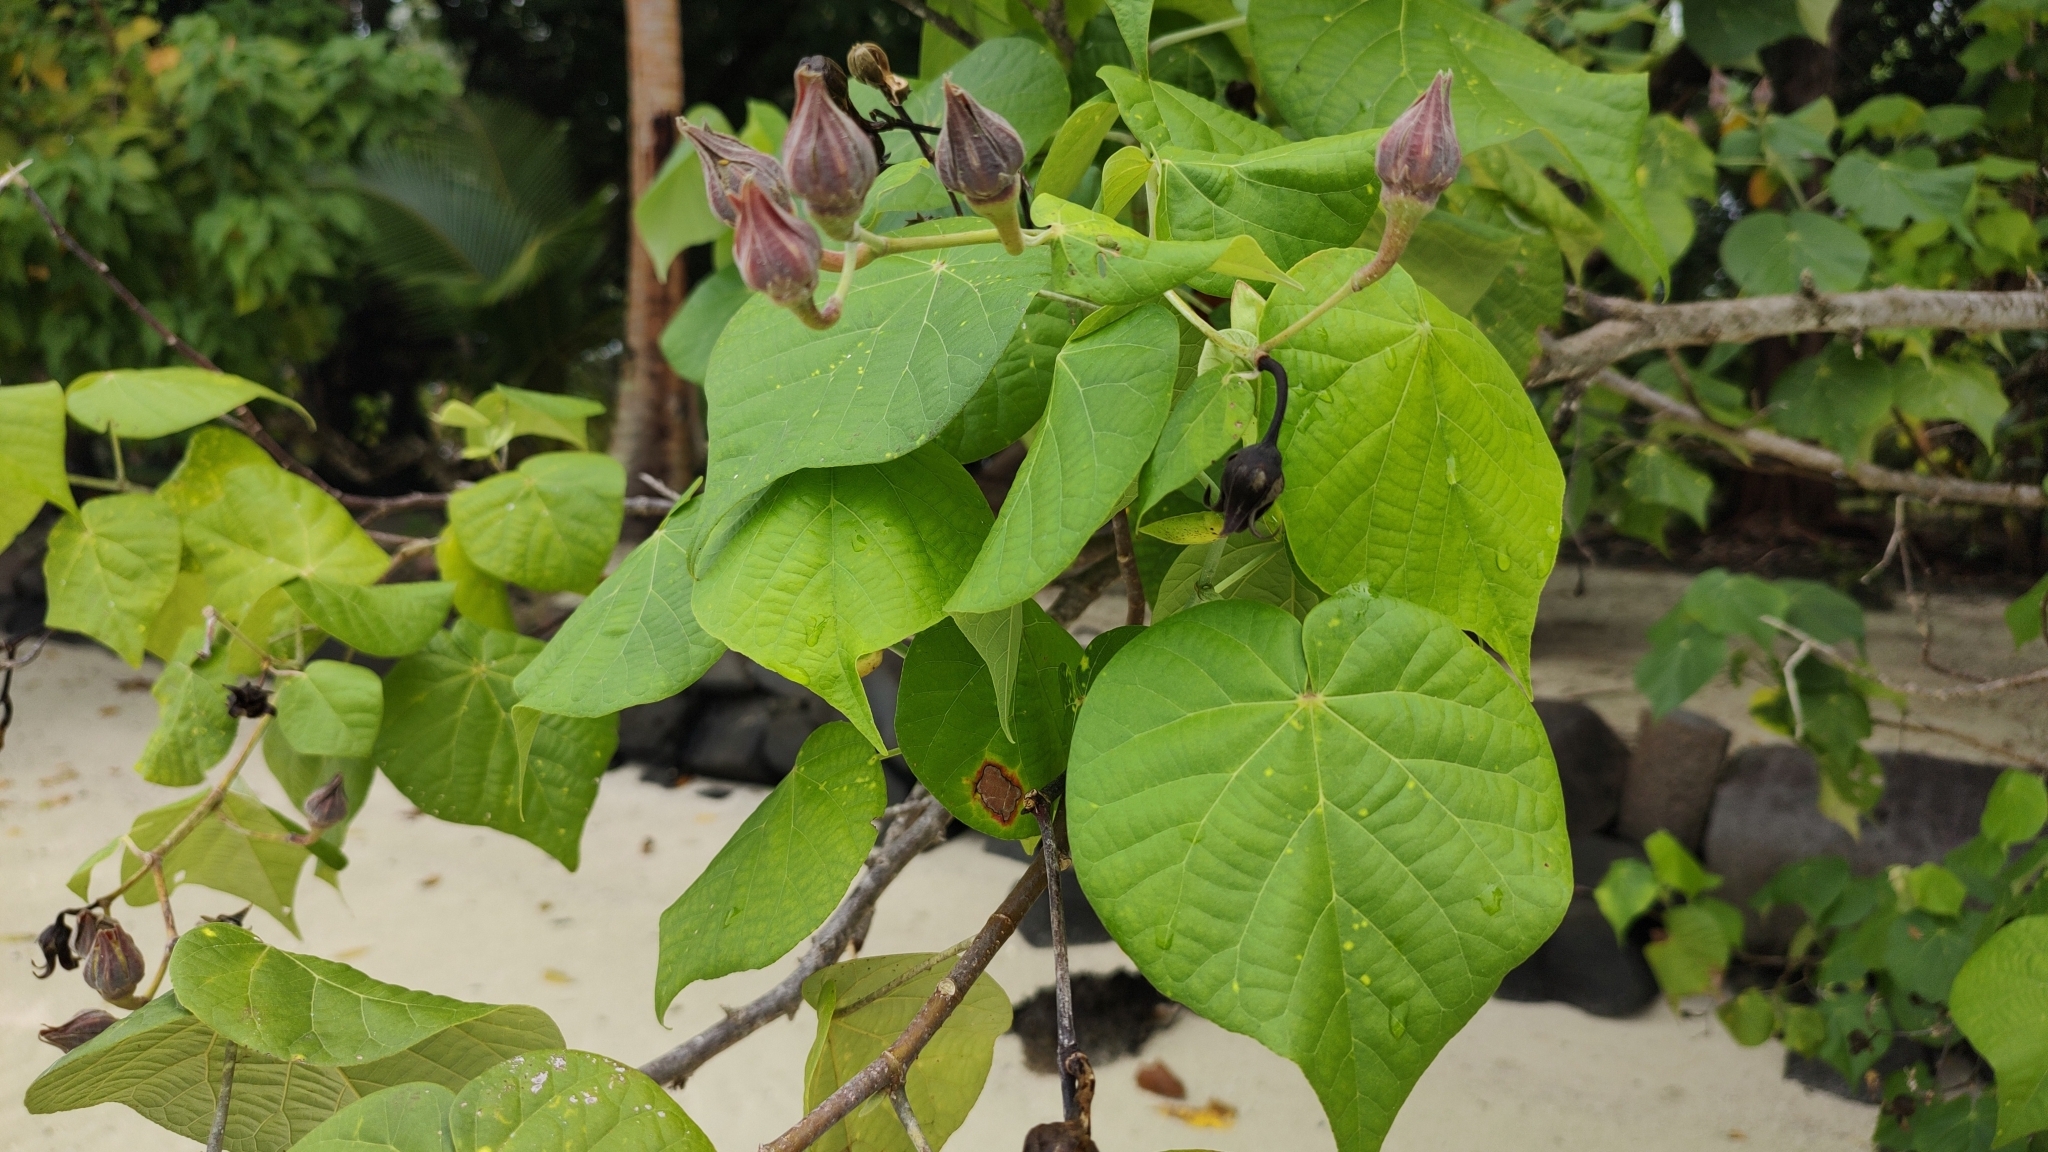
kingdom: Plantae
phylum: Tracheophyta
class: Magnoliopsida
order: Malvales
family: Malvaceae
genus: Talipariti
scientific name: Talipariti tiliaceum
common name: Sea hibiscus
